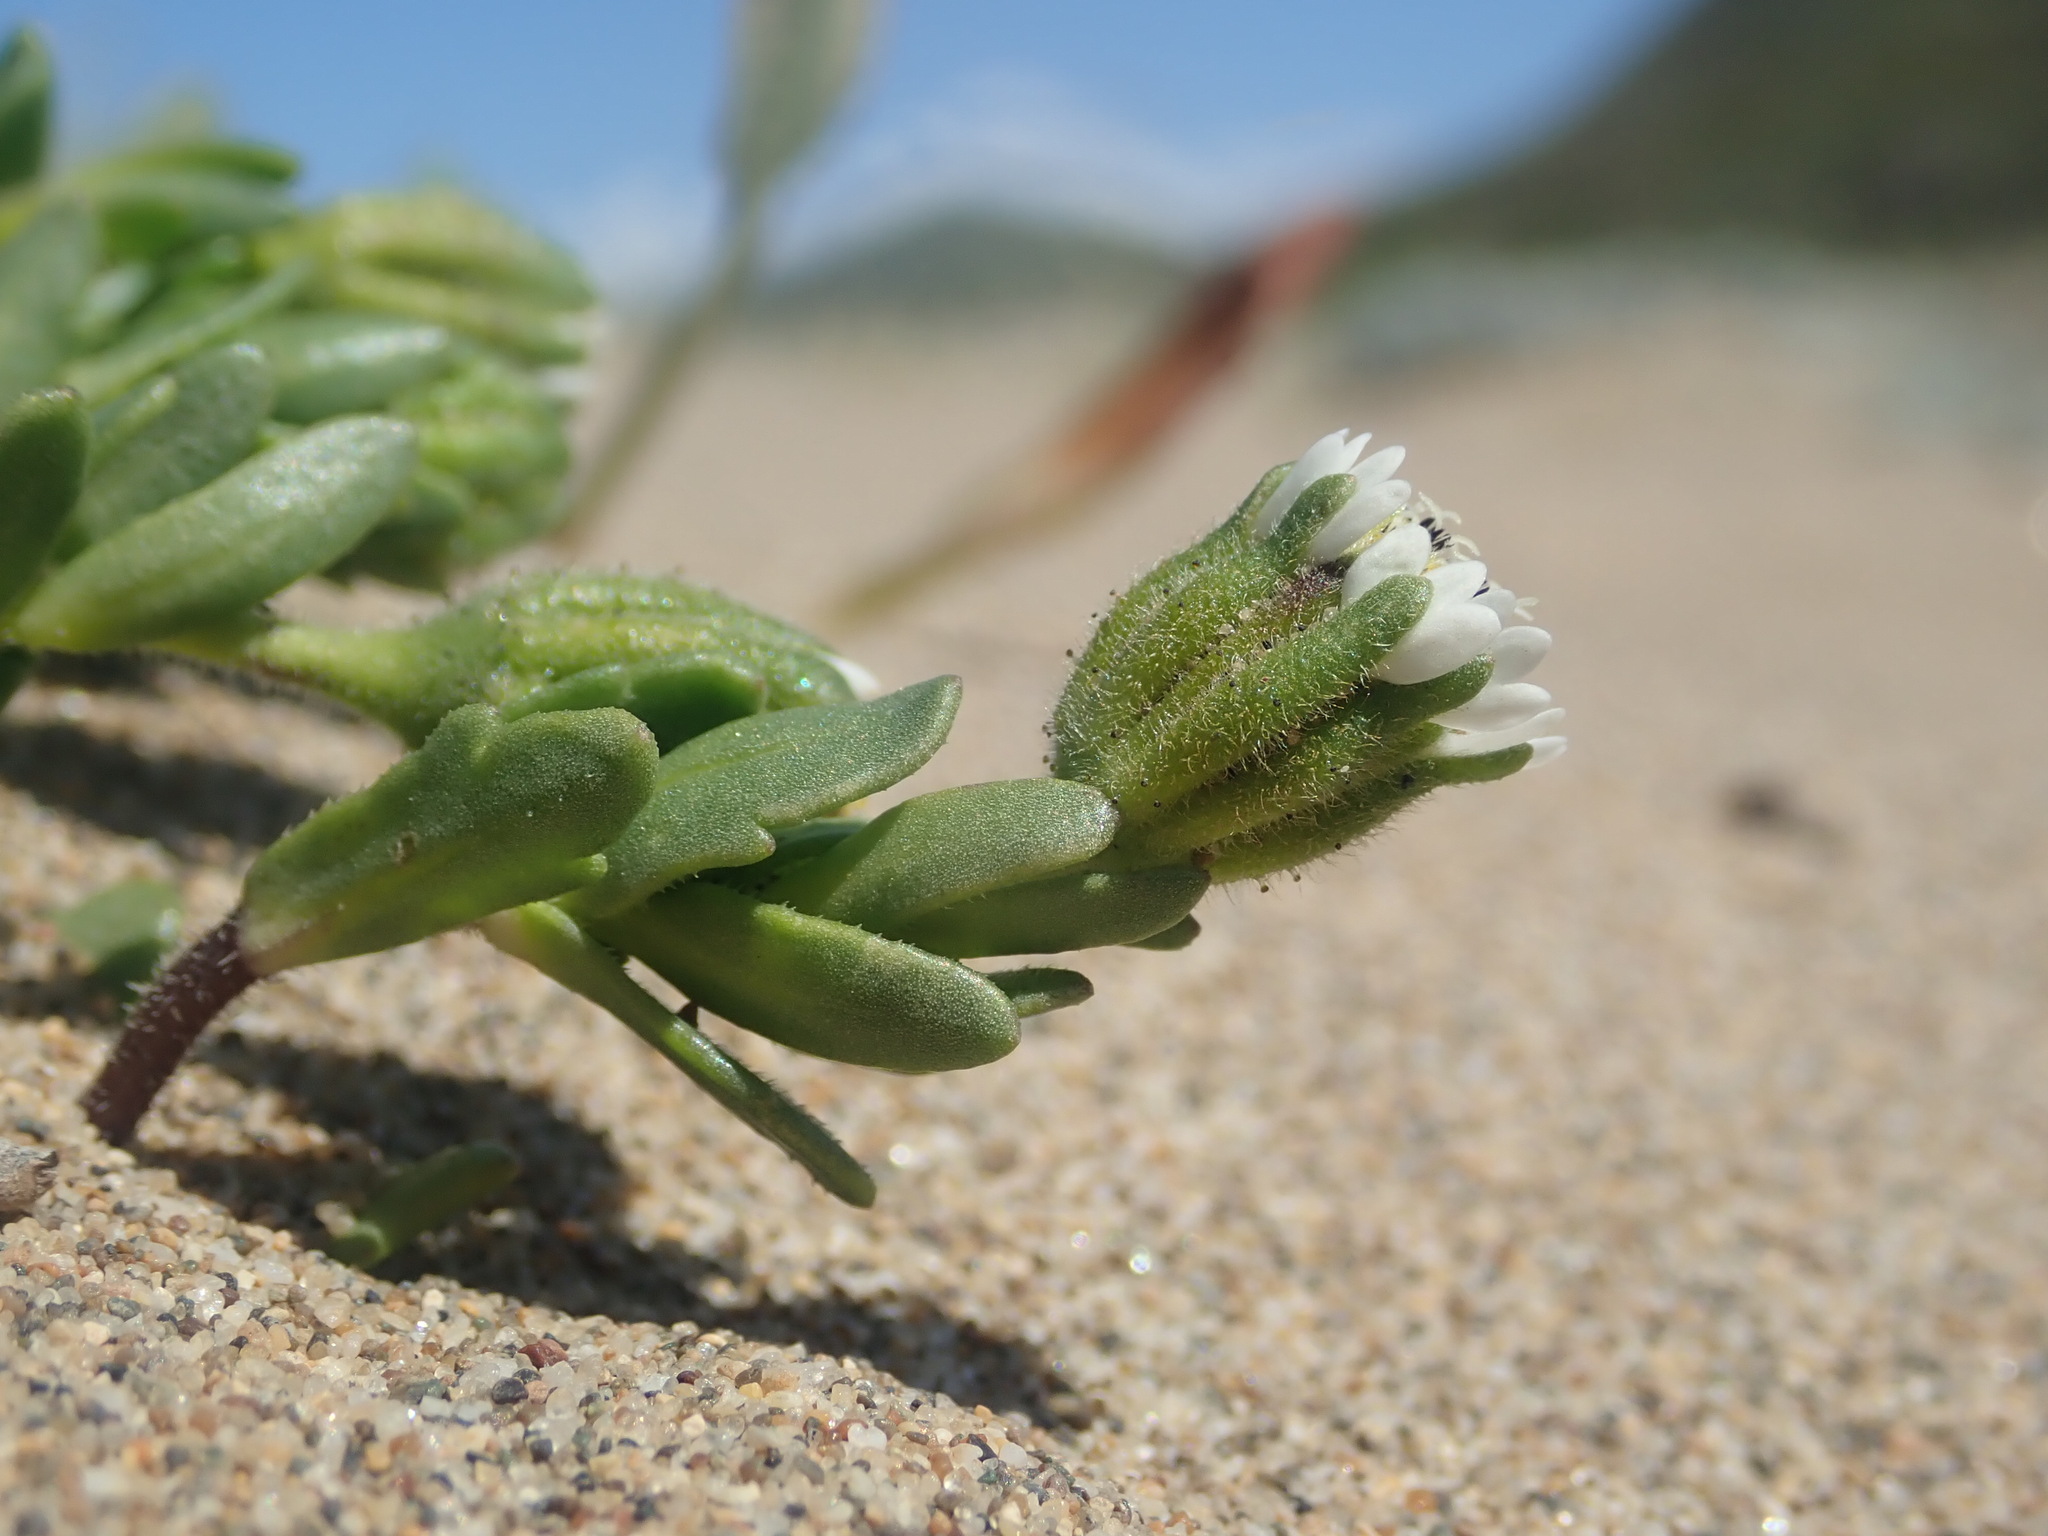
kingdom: Plantae
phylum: Tracheophyta
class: Magnoliopsida
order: Asterales
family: Asteraceae
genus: Layia
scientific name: Layia carnosa
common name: Beach layia
